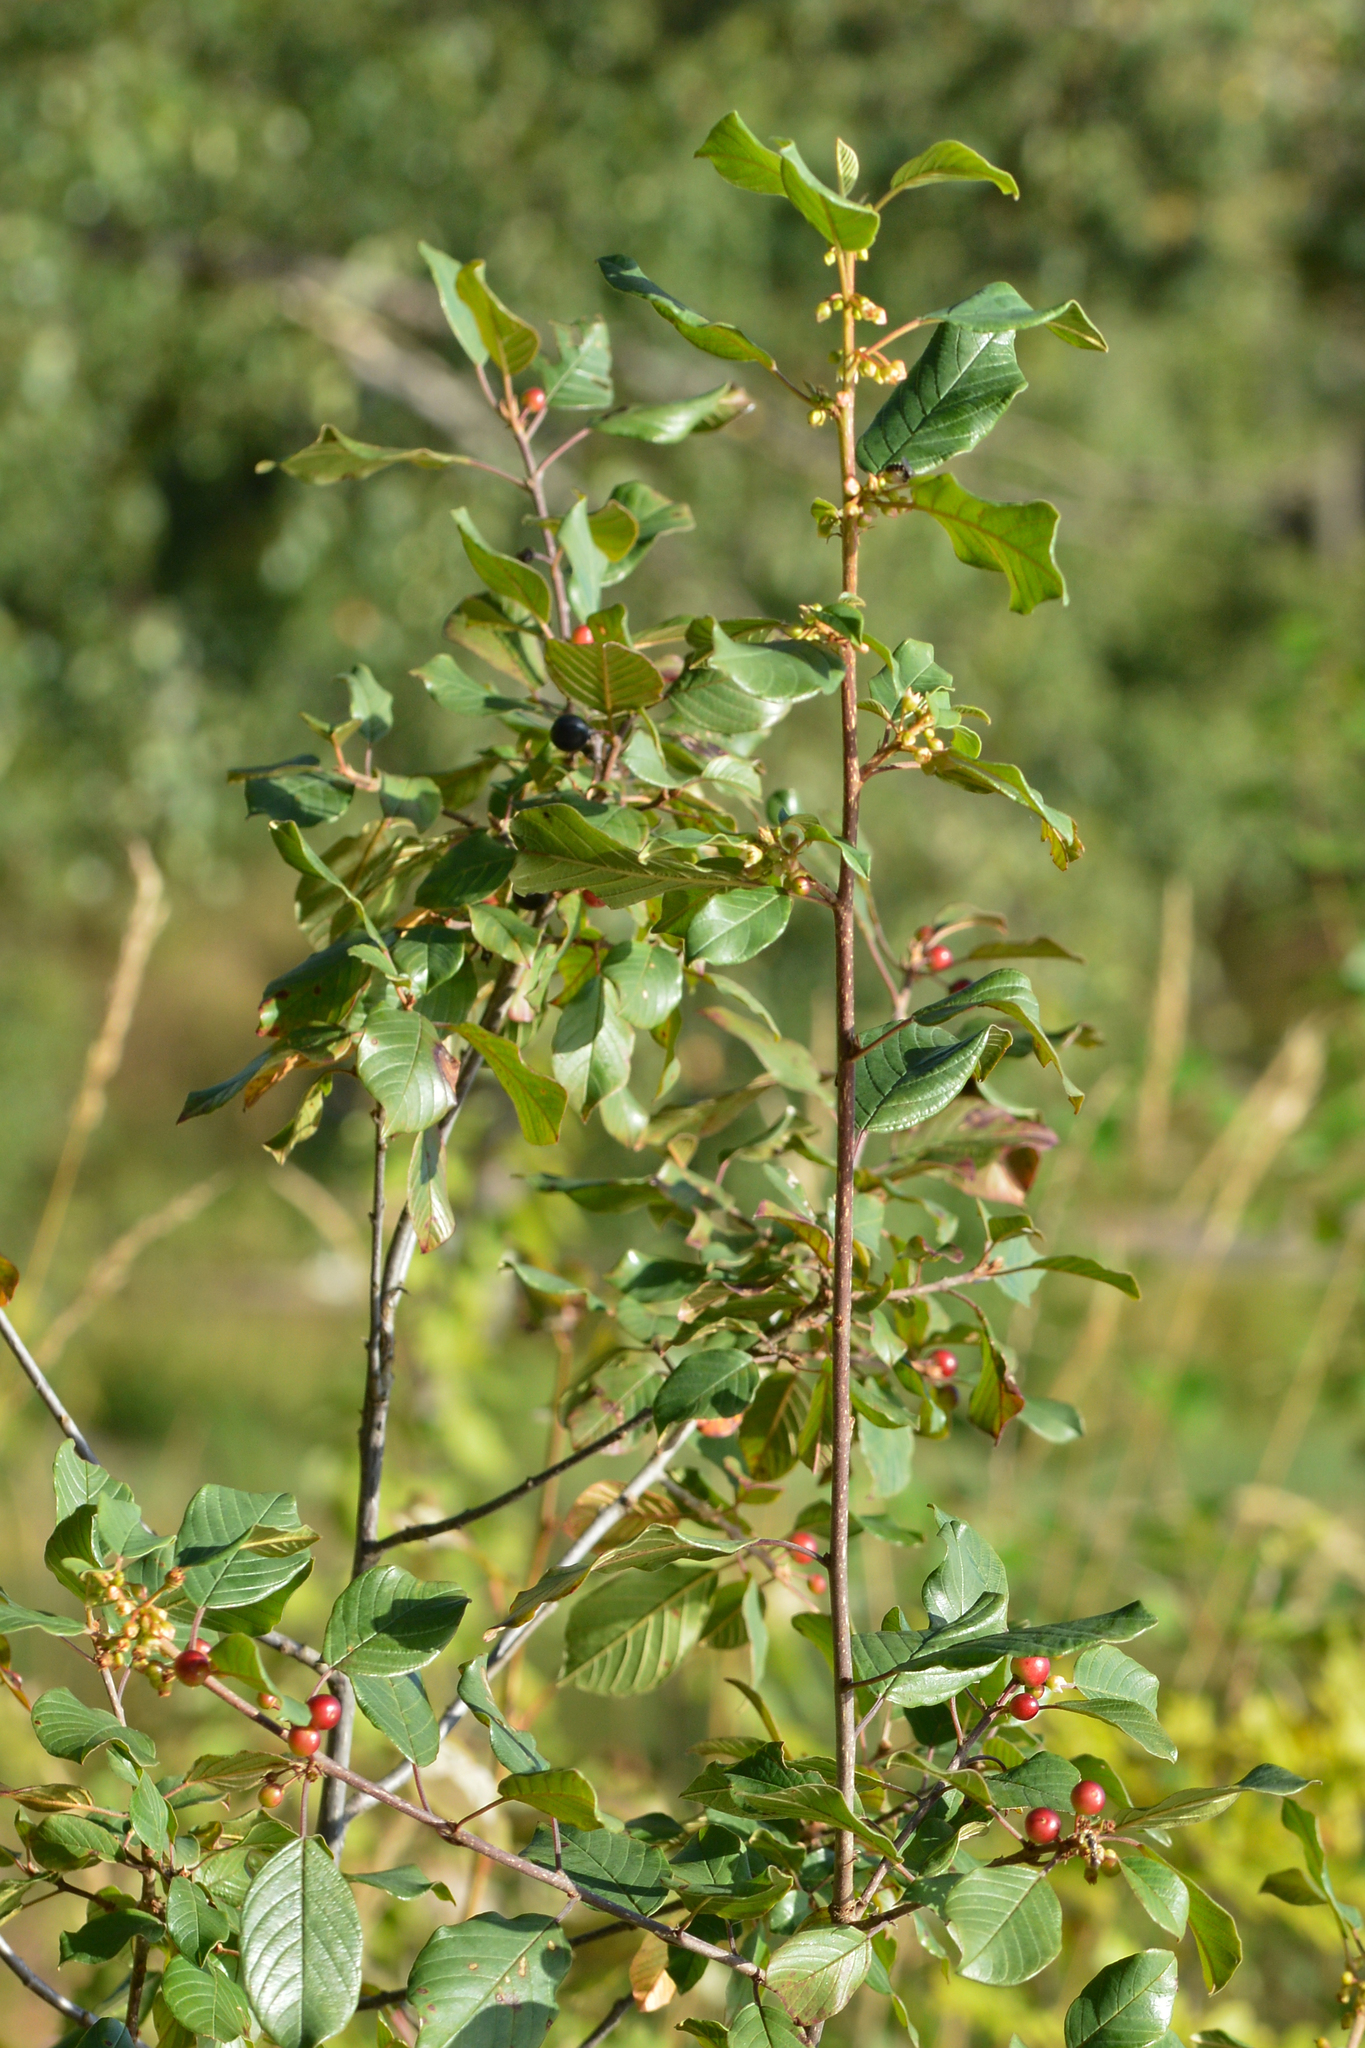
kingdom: Plantae
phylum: Tracheophyta
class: Magnoliopsida
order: Rosales
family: Rhamnaceae
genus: Frangula
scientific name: Frangula alnus
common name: Alder buckthorn
